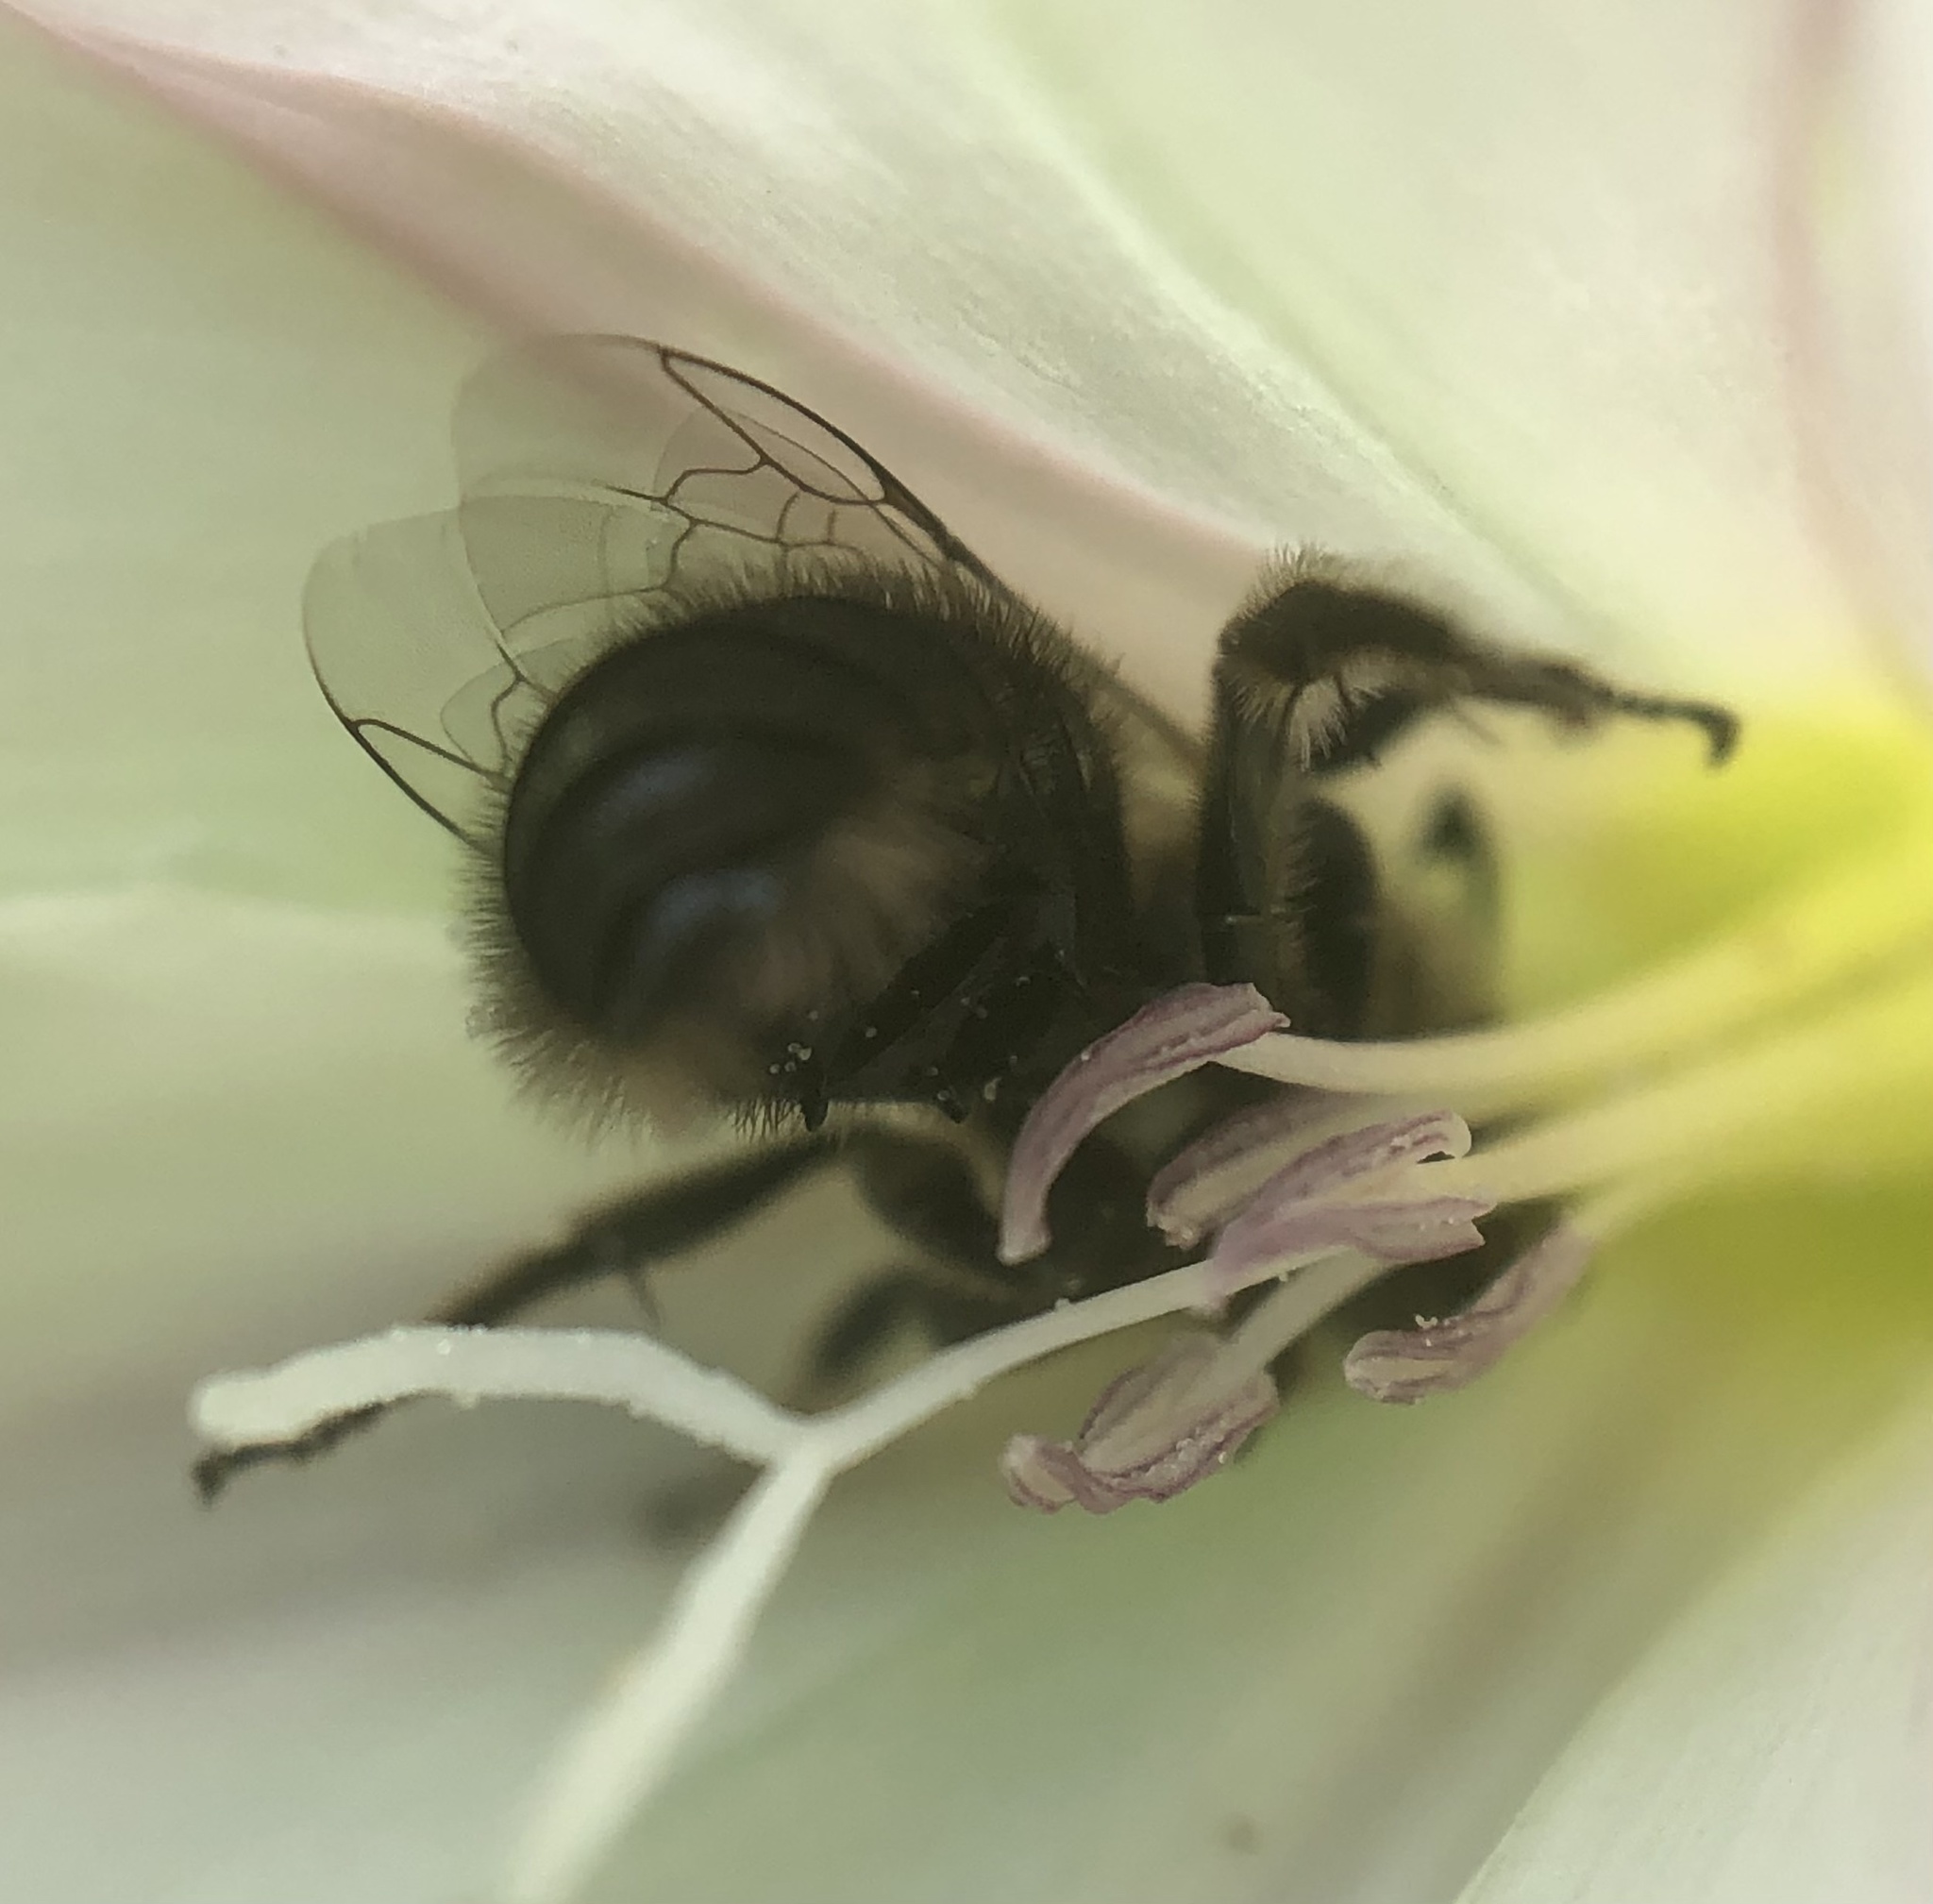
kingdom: Animalia
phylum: Arthropoda
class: Insecta
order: Hymenoptera
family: Halictidae
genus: Systropha
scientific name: Systropha curvicornis
